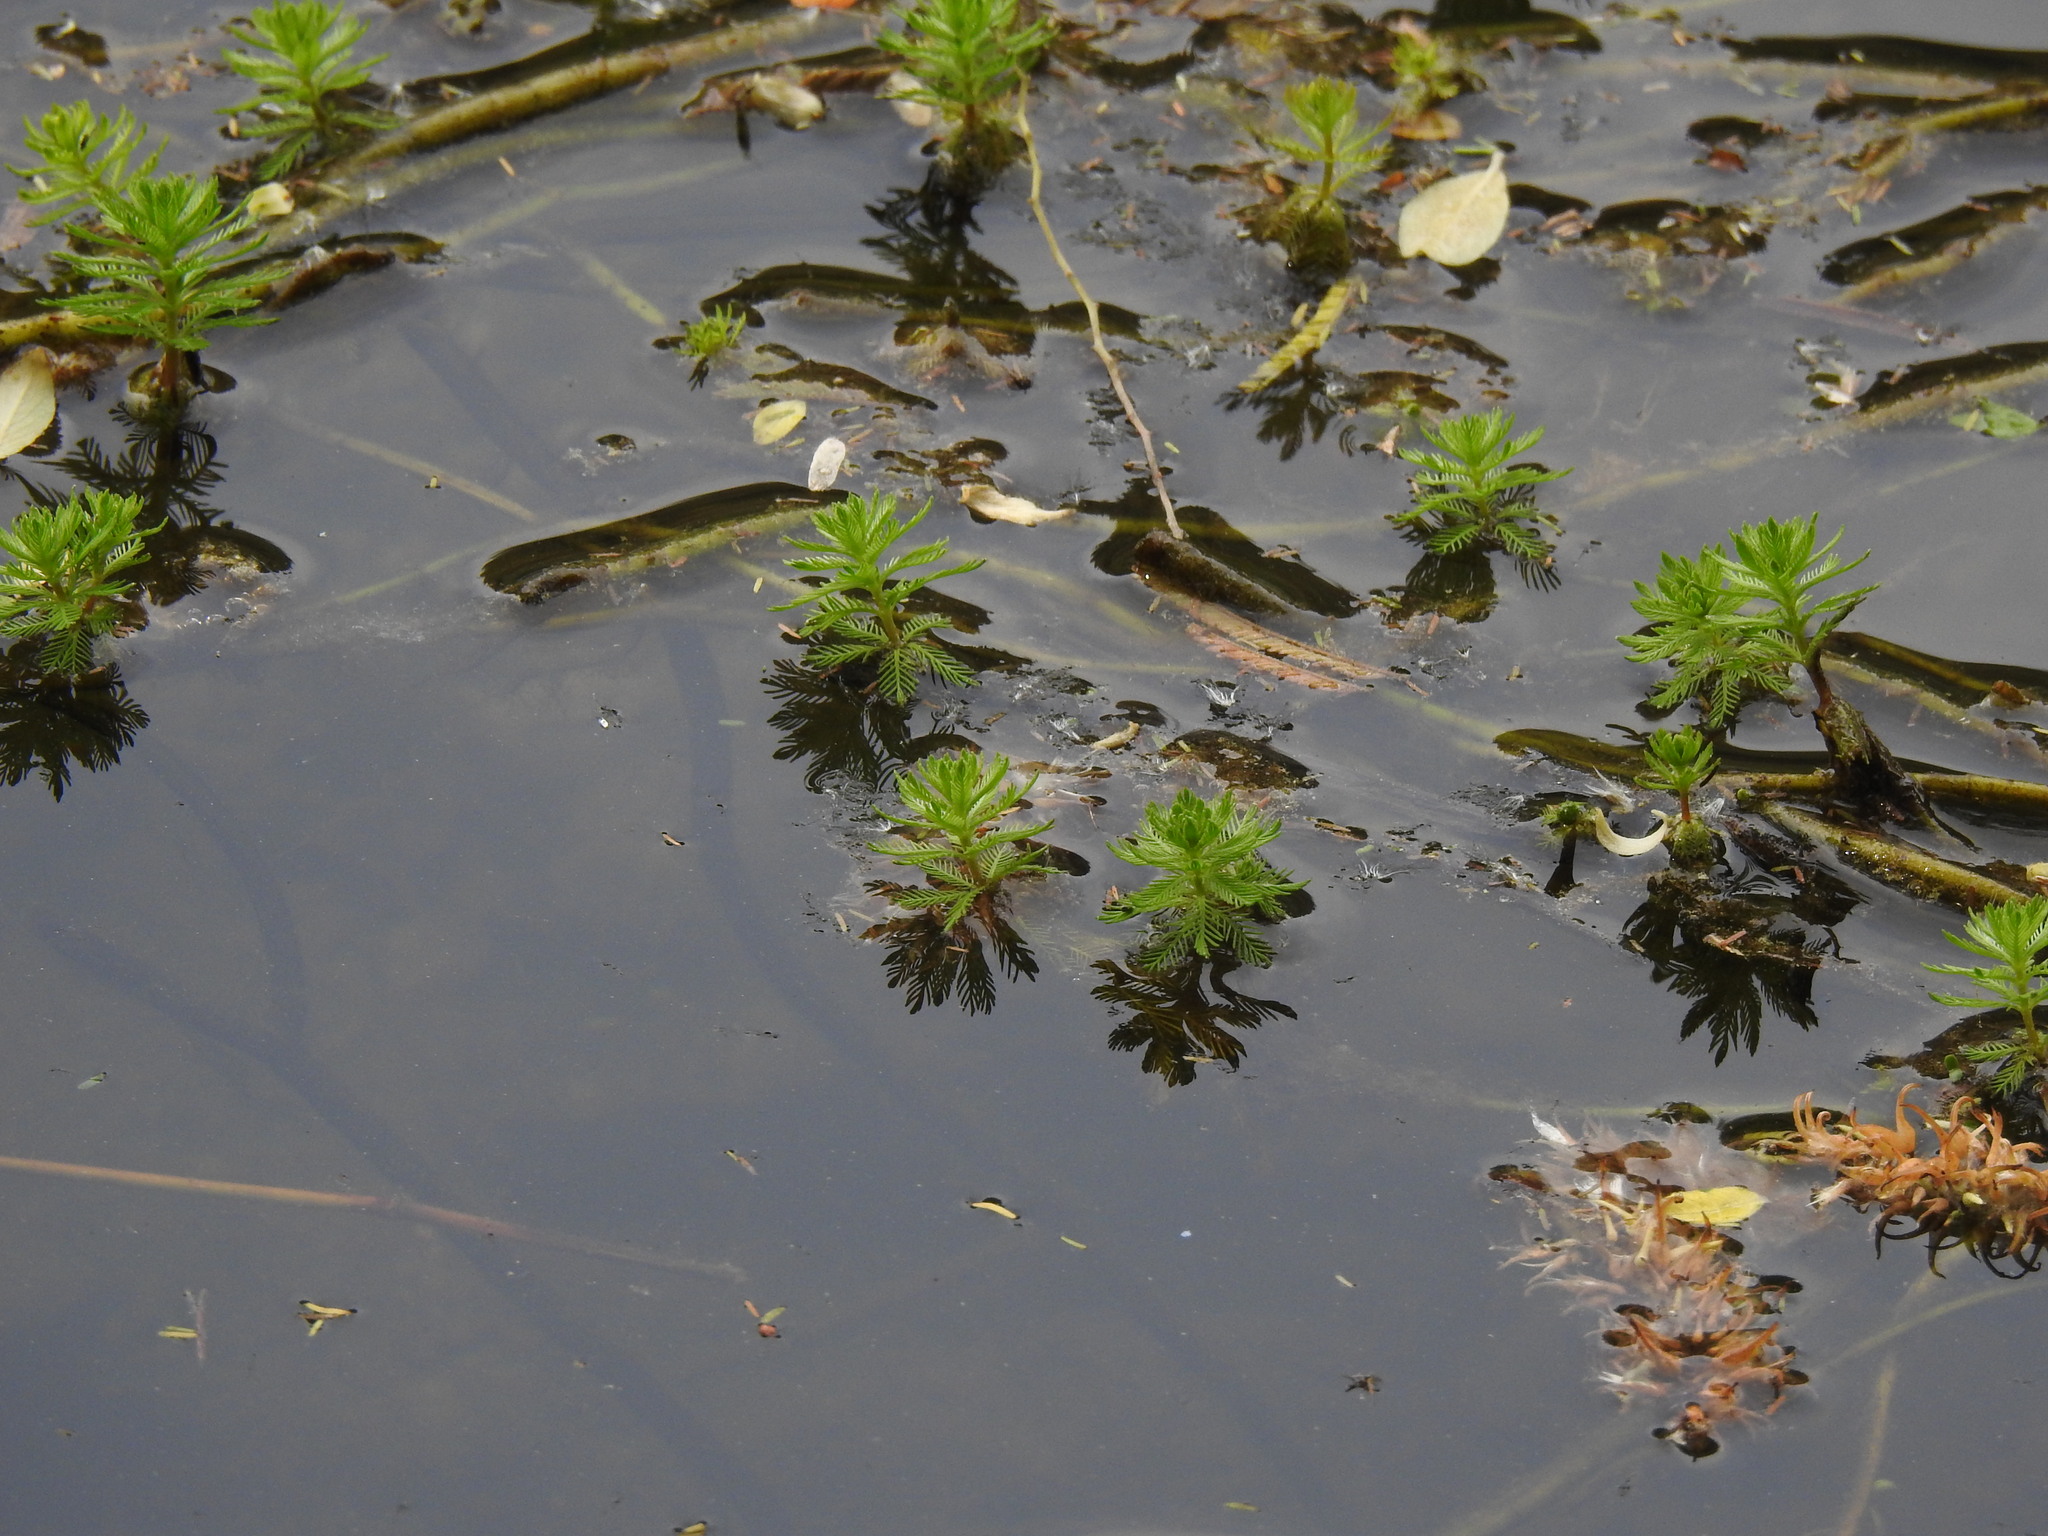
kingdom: Plantae
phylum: Tracheophyta
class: Magnoliopsida
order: Saxifragales
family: Haloragaceae
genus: Myriophyllum
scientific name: Myriophyllum aquaticum
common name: Parrot's feather
